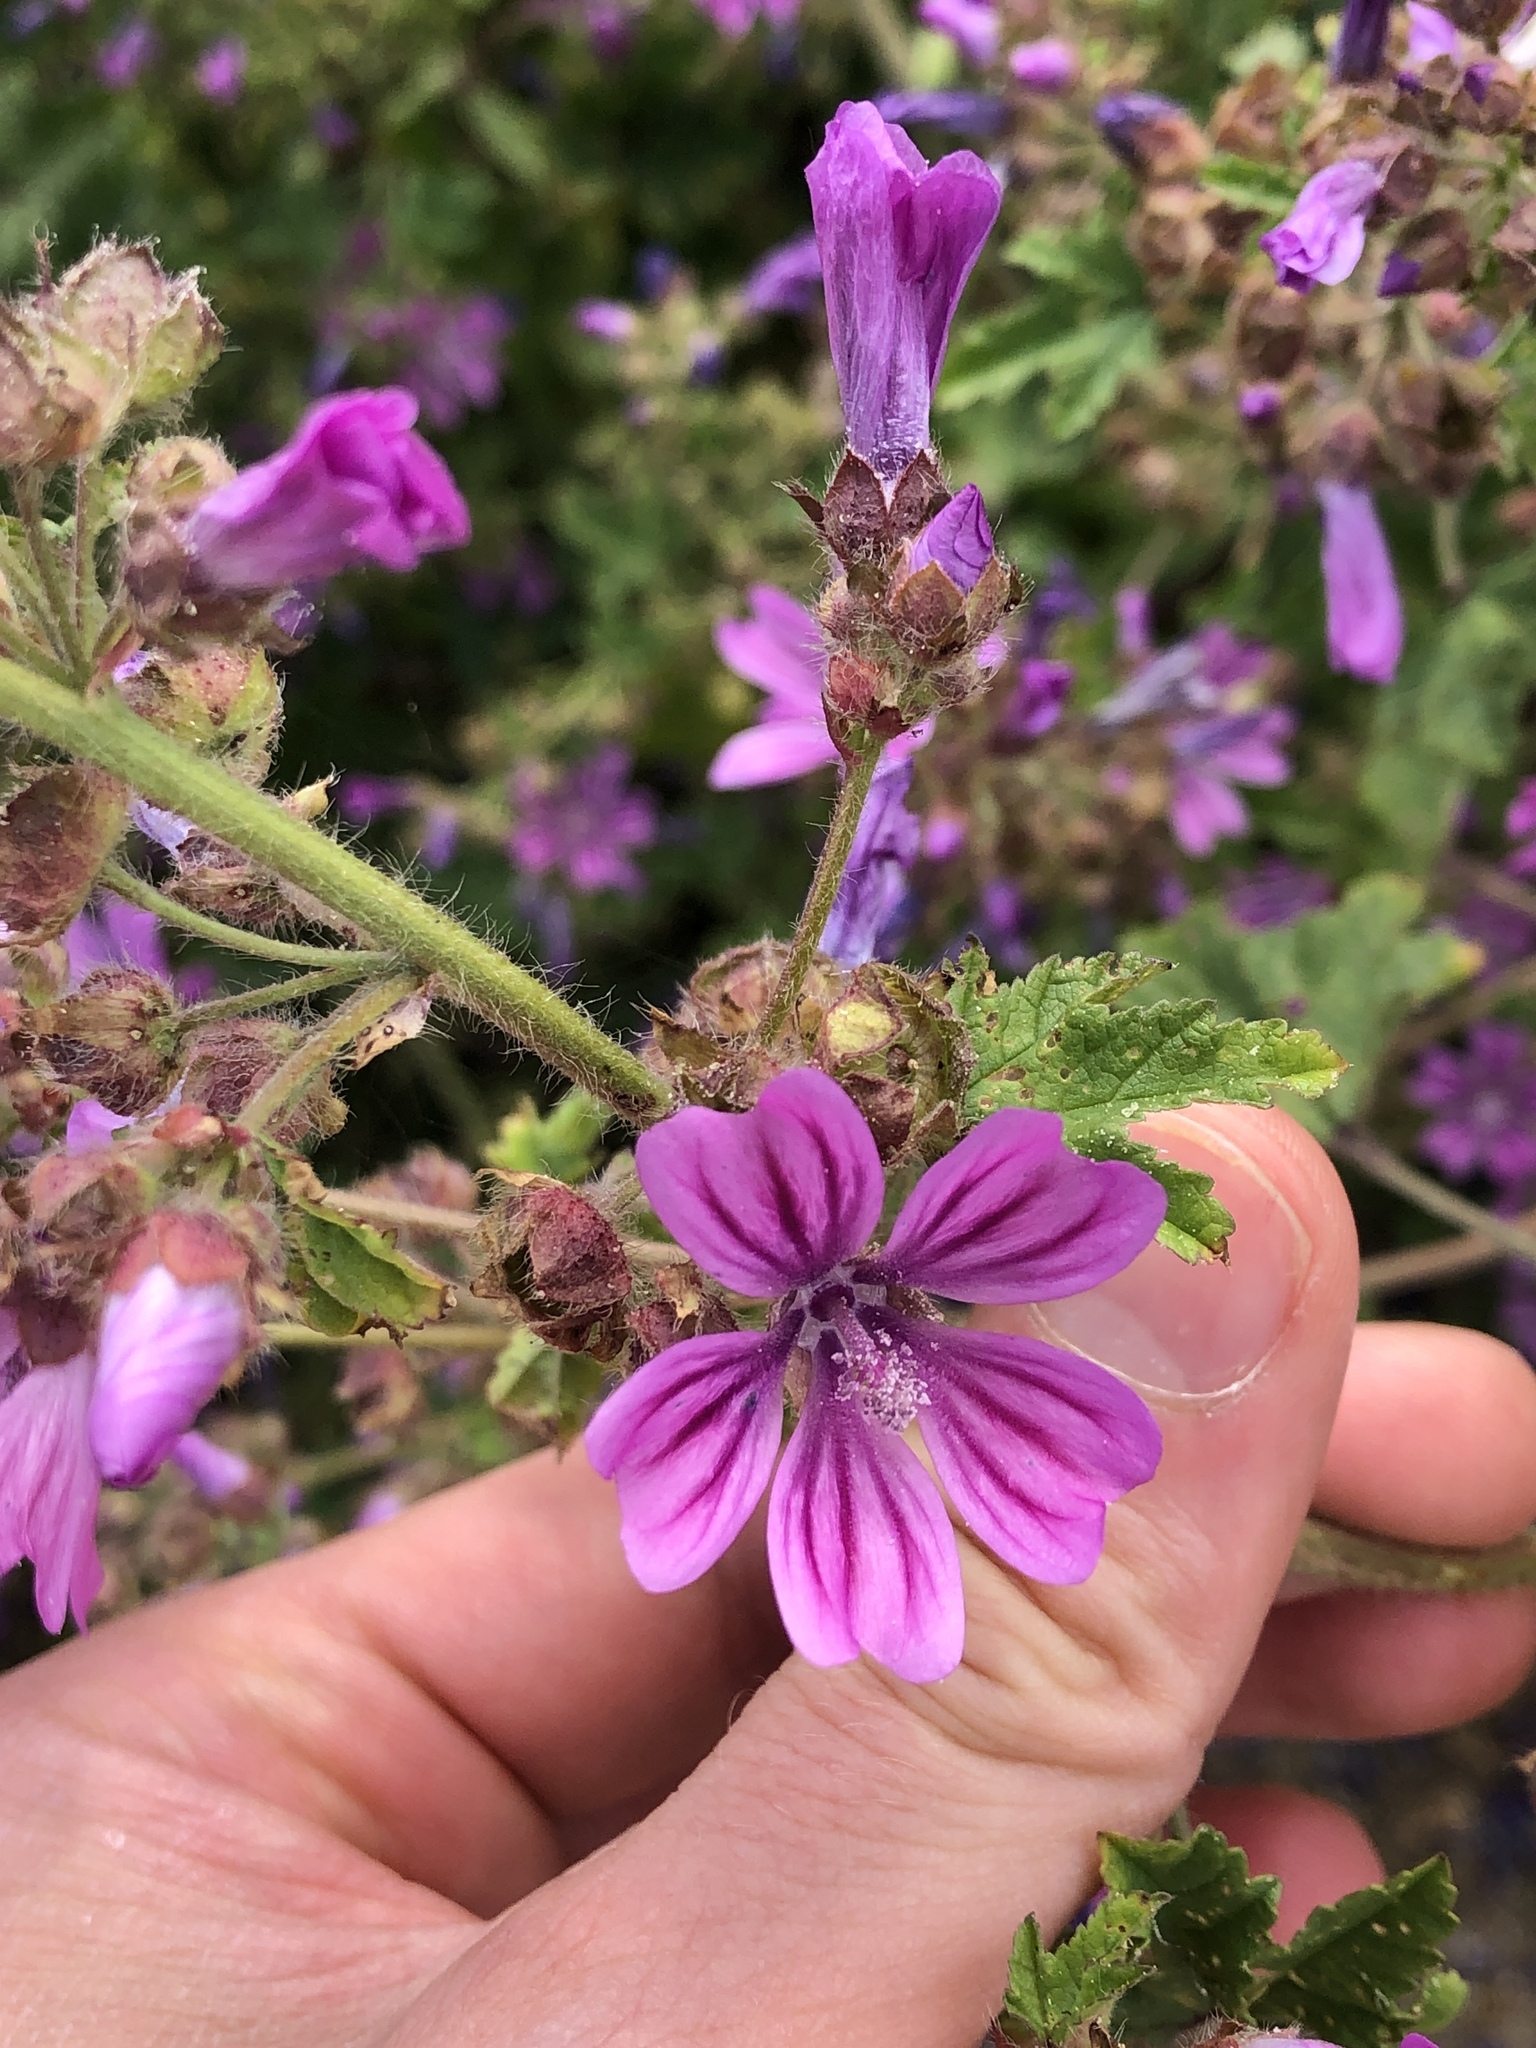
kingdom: Plantae
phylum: Tracheophyta
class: Magnoliopsida
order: Malvales
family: Malvaceae
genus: Malva
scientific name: Malva sylvestris
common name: Common mallow
